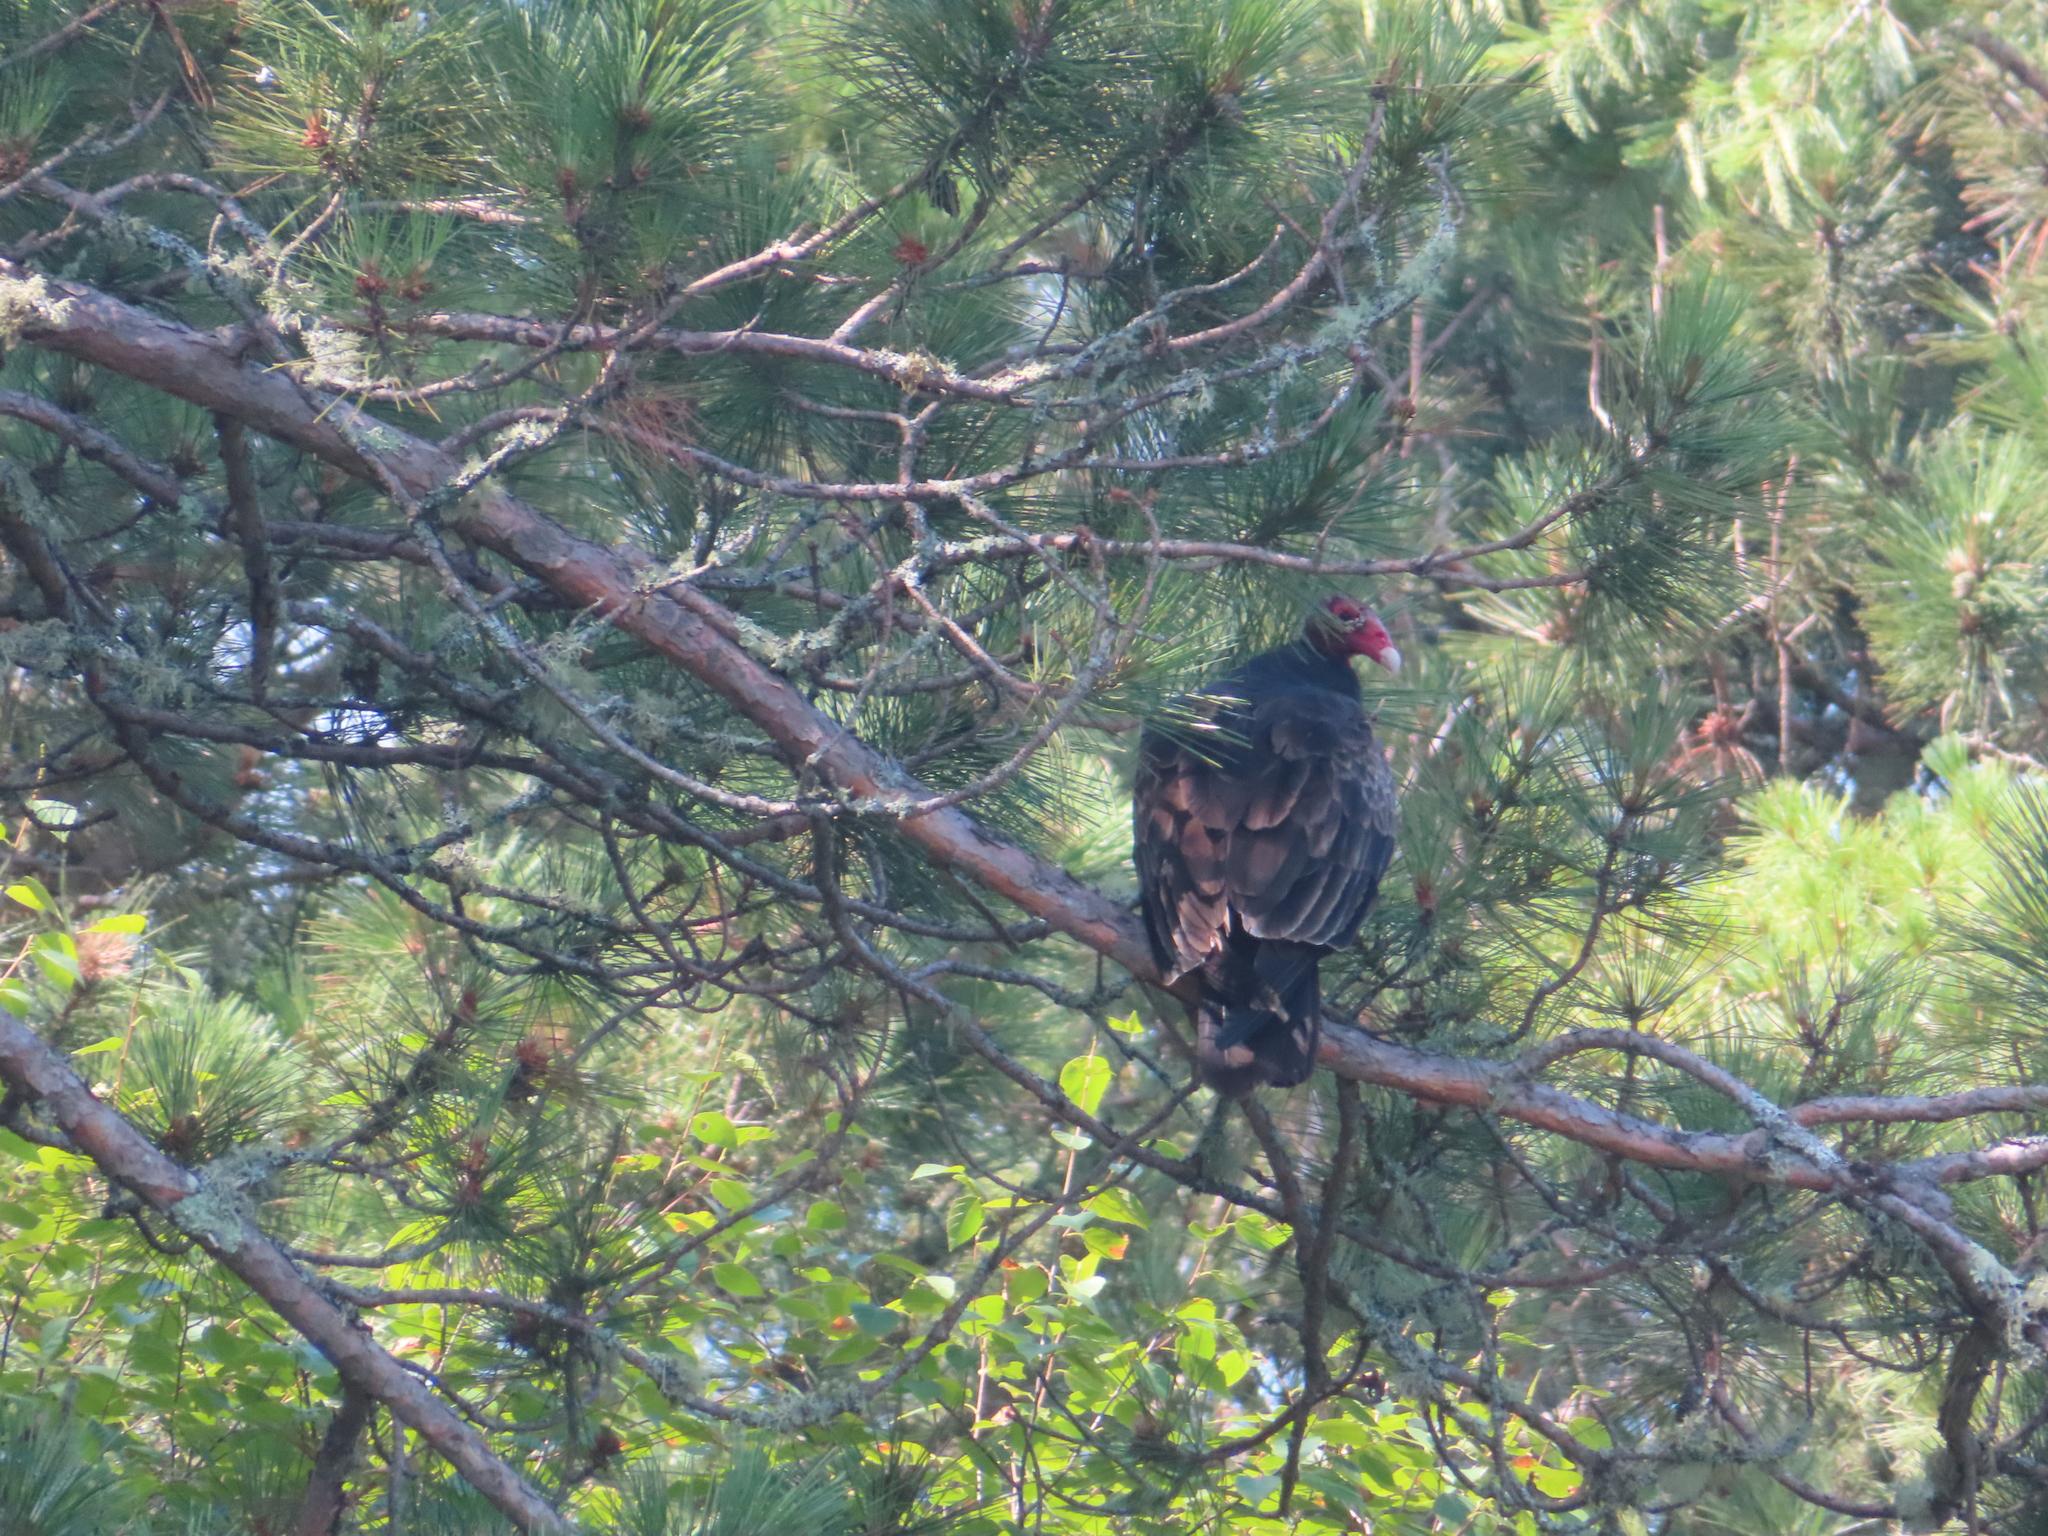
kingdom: Animalia
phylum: Chordata
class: Aves
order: Accipitriformes
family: Cathartidae
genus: Cathartes
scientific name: Cathartes aura
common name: Turkey vulture
